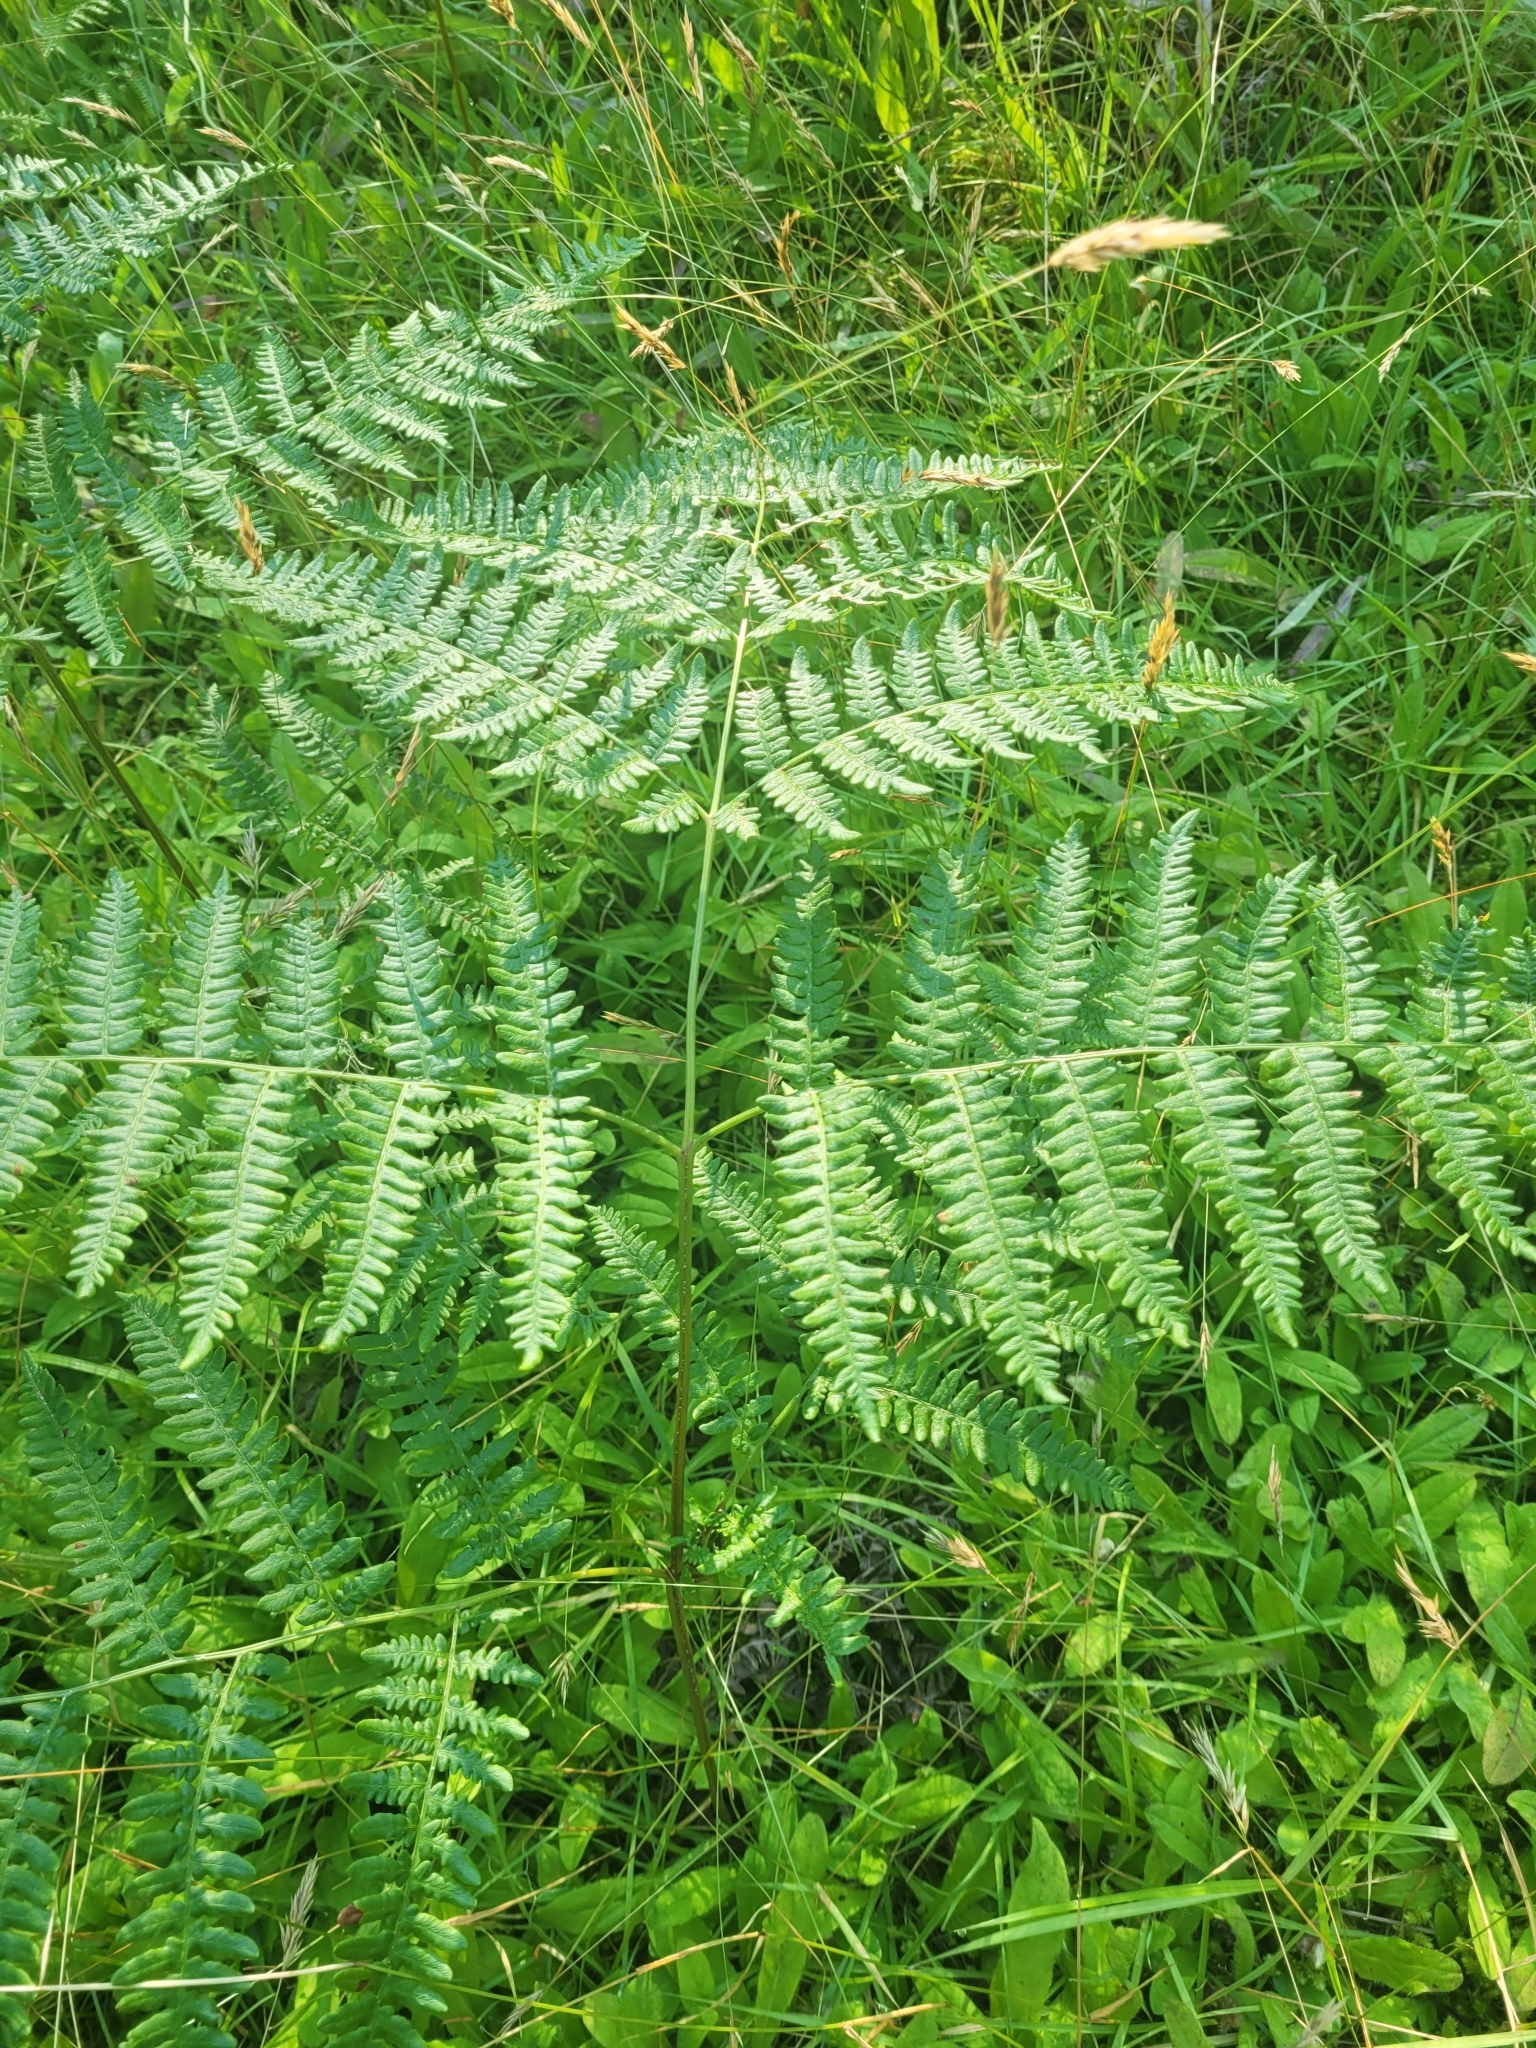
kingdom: Plantae
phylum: Tracheophyta
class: Polypodiopsida
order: Polypodiales
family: Dennstaedtiaceae
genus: Pteridium
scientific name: Pteridium aquilinum
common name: Bracken
